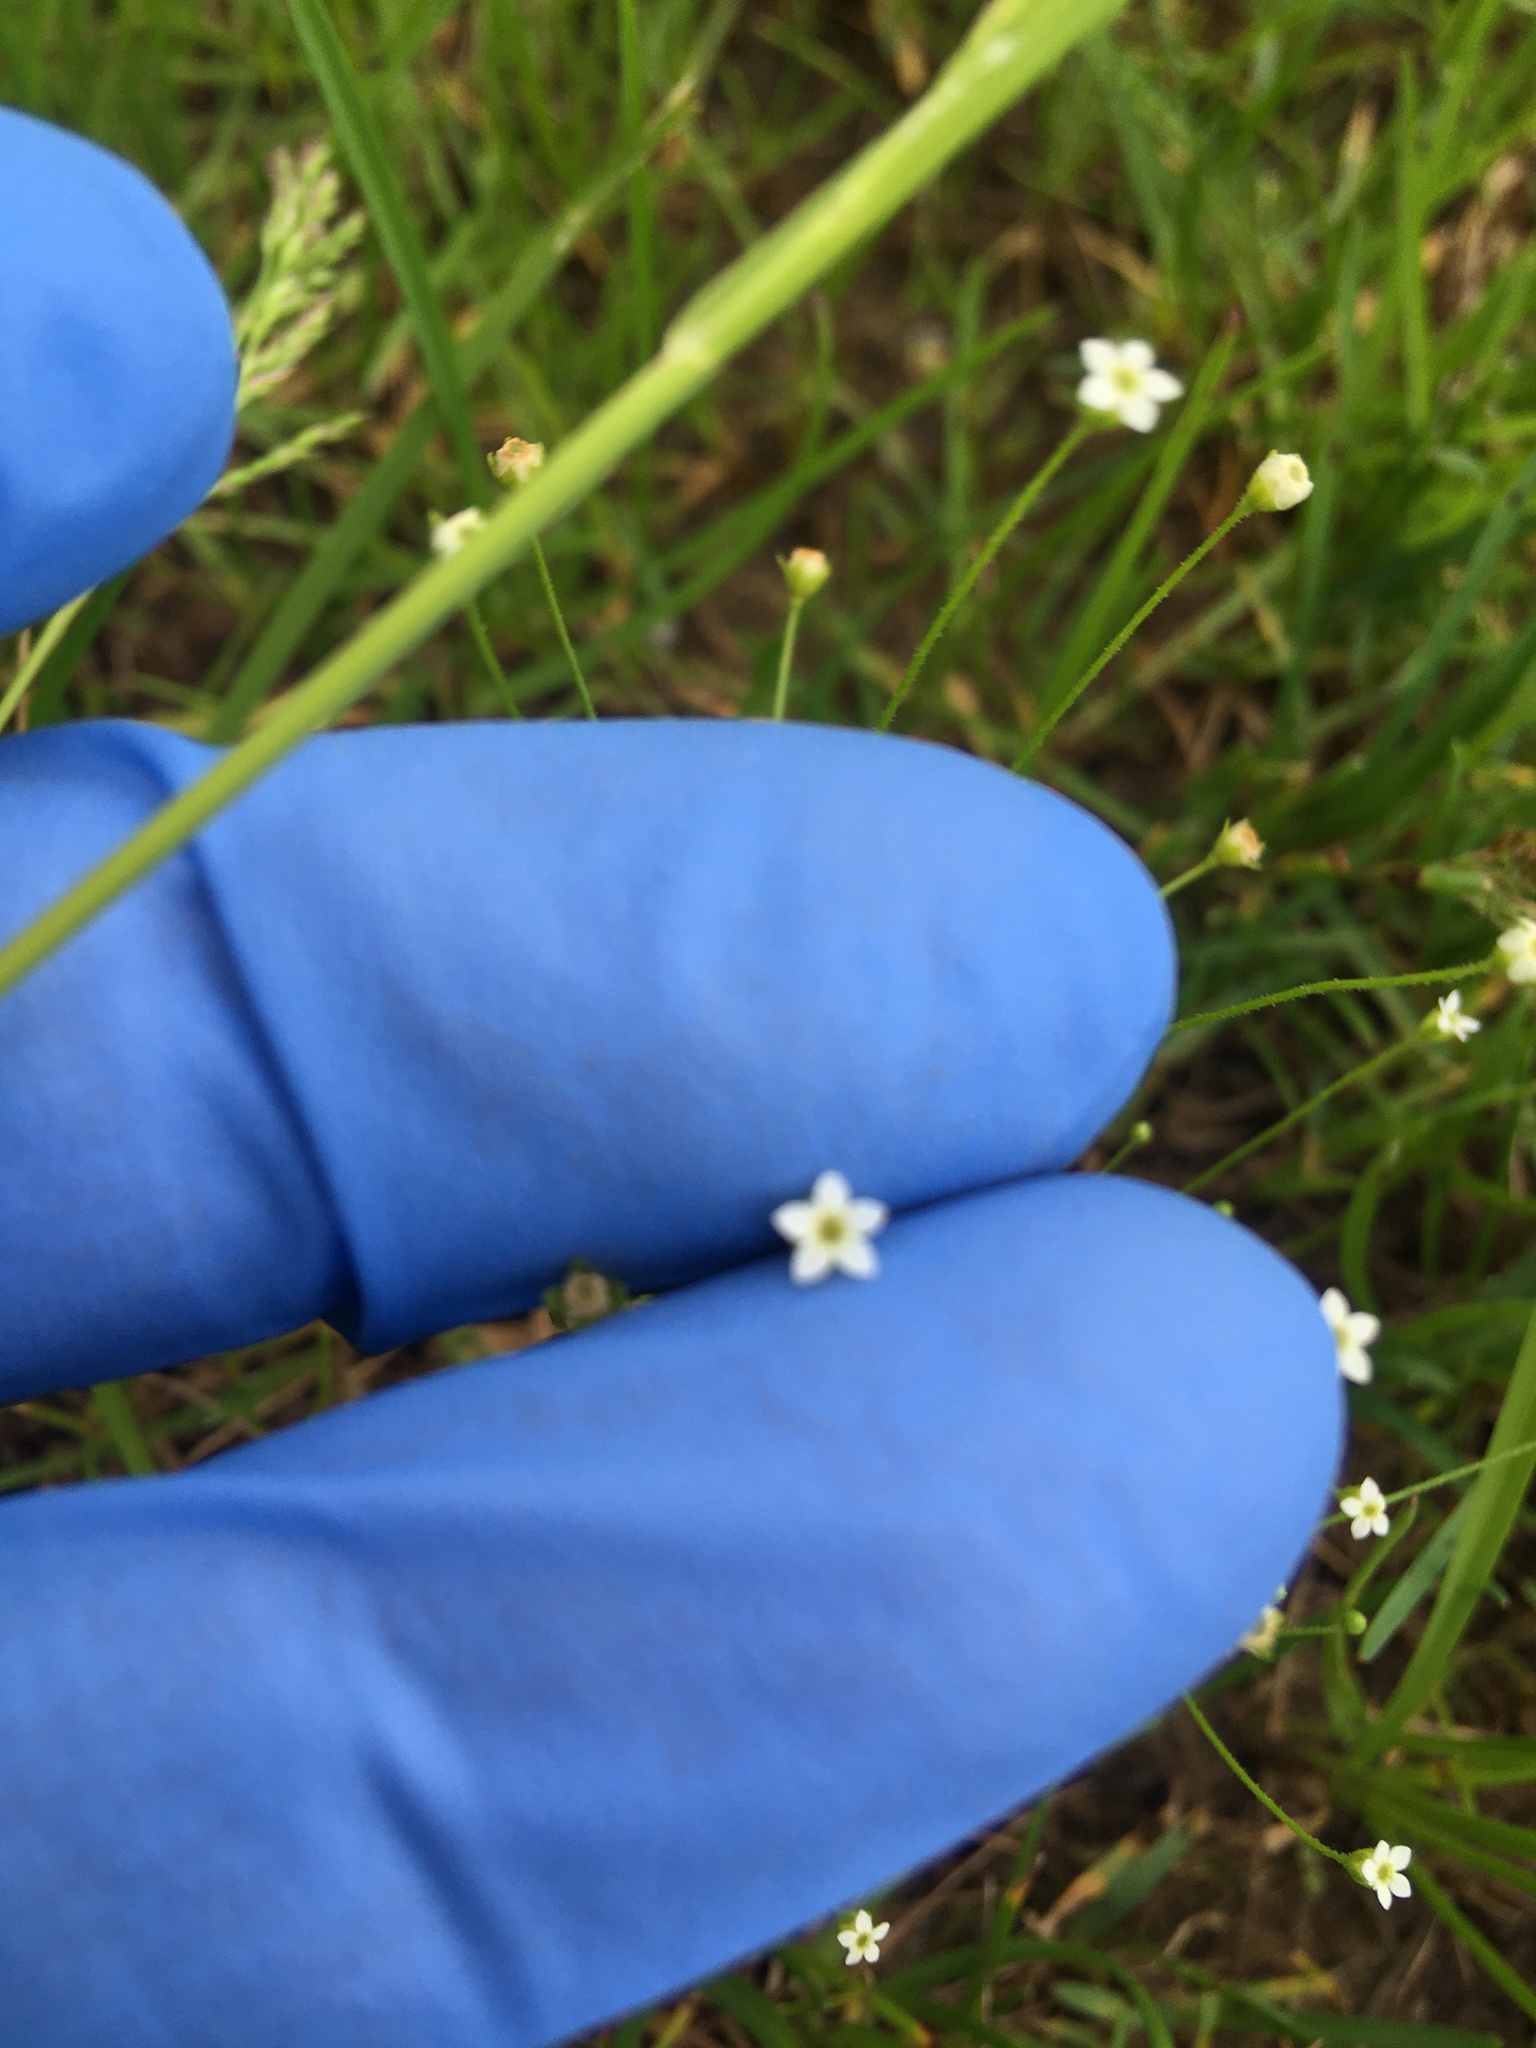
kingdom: Plantae
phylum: Tracheophyta
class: Magnoliopsida
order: Ericales
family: Primulaceae
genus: Androsace
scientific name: Androsace filiformis
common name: Filiform rock jasmine
